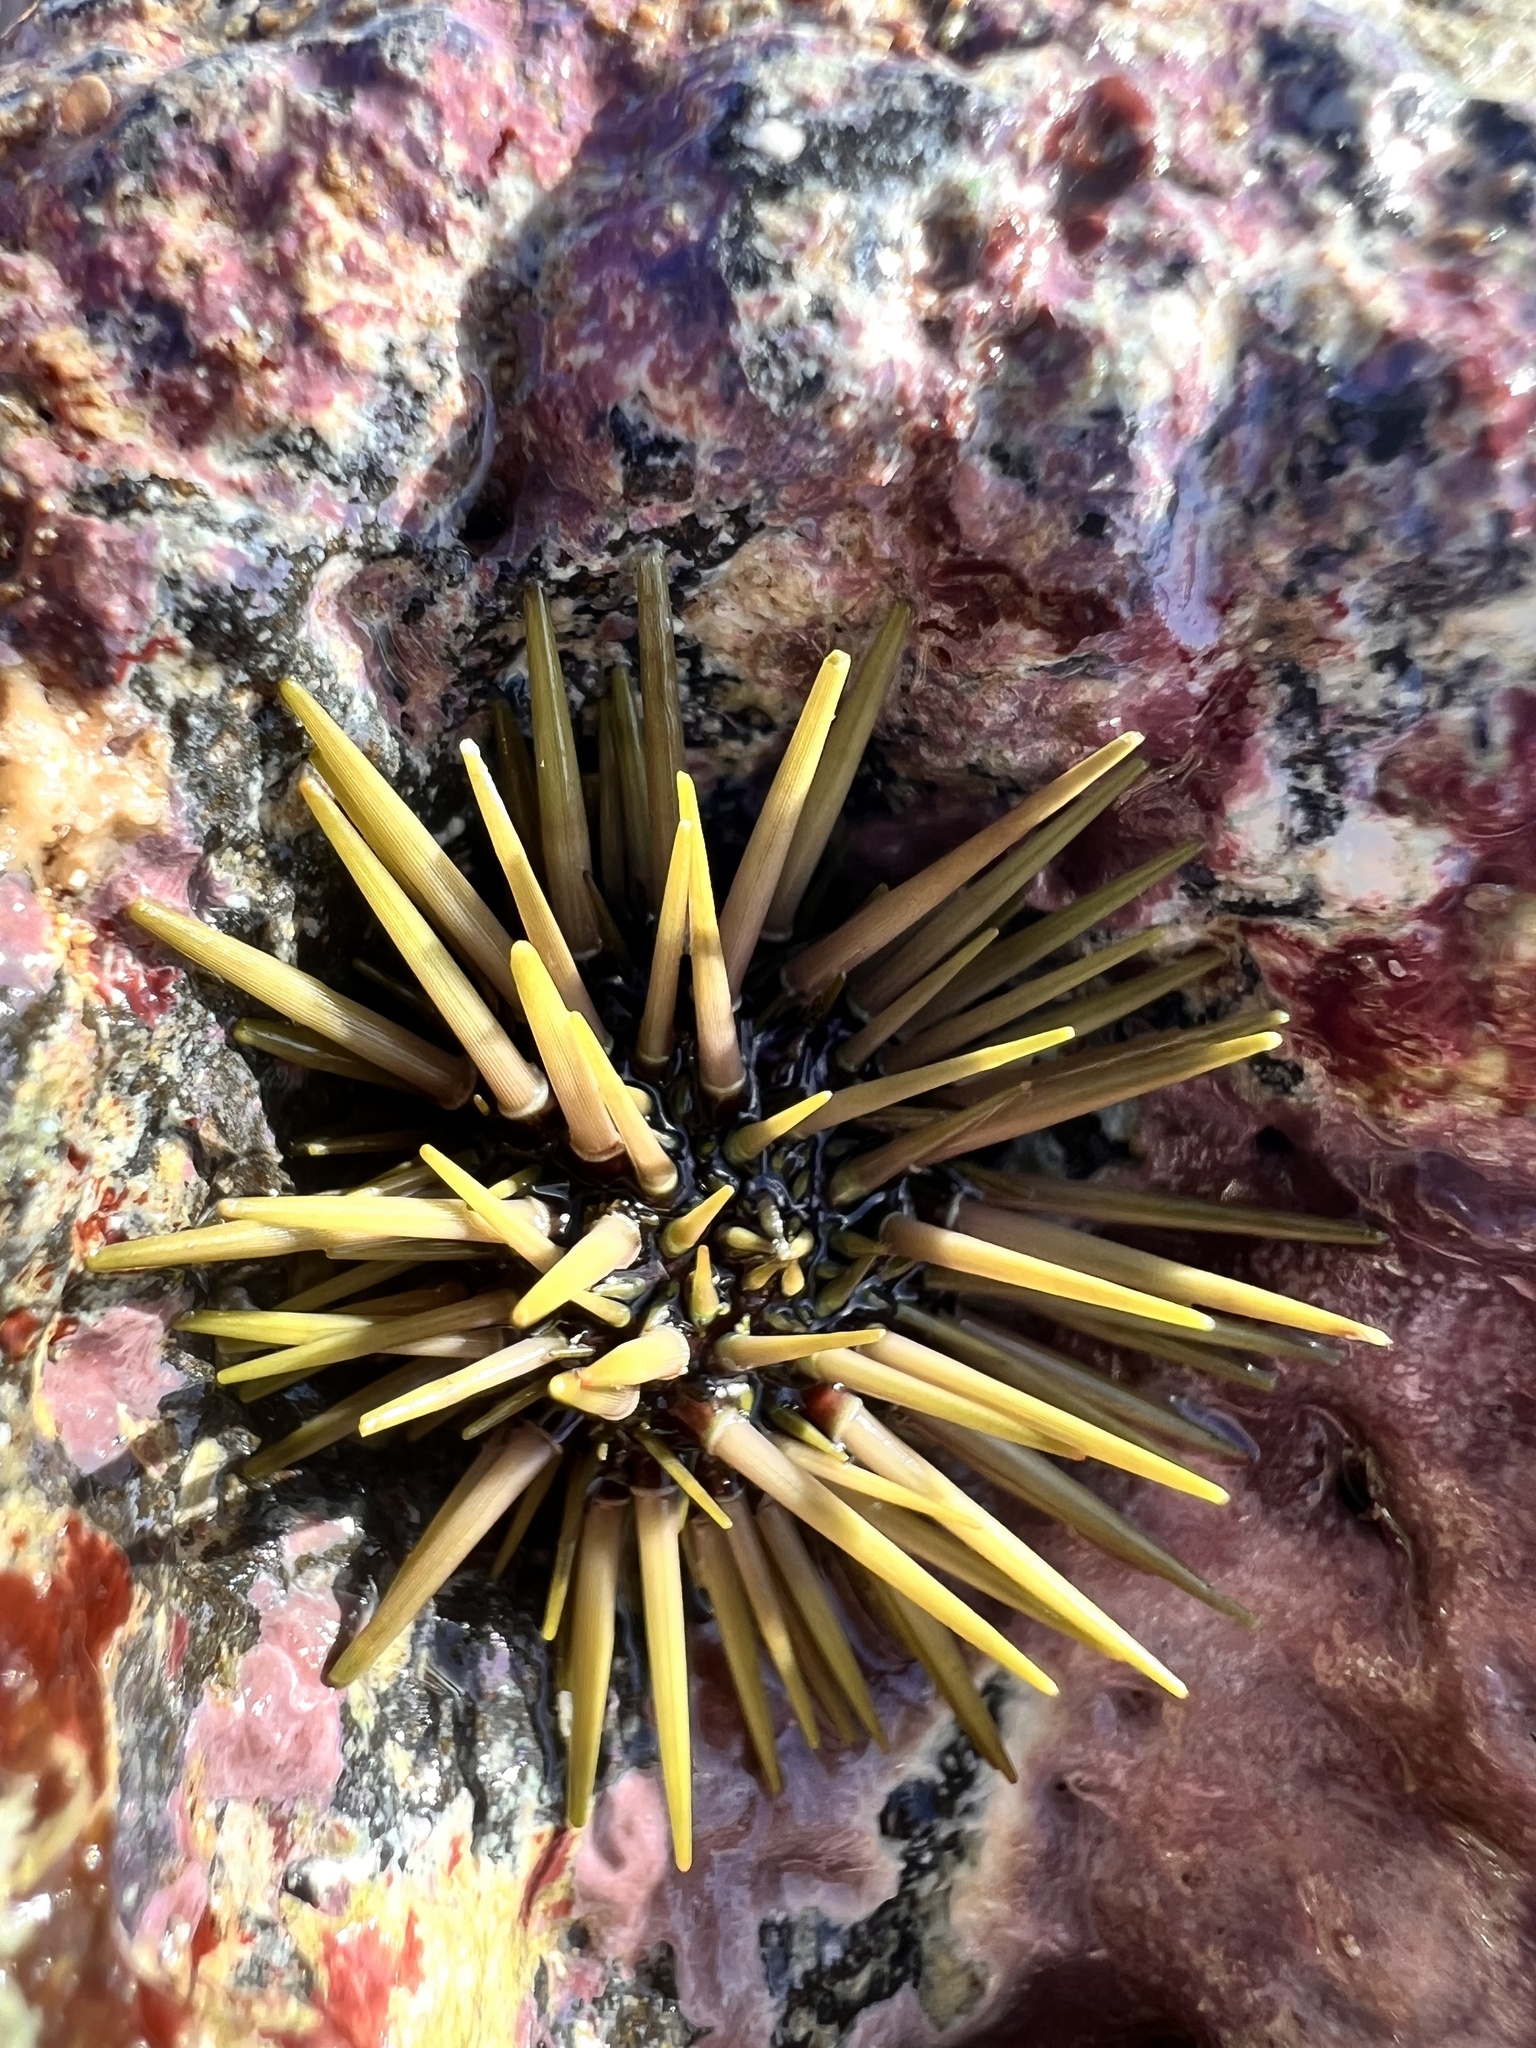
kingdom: Animalia
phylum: Echinodermata
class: Echinoidea
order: Camarodonta
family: Echinometridae
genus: Echinometra
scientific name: Echinometra mathaei
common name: Rock-boring urchin
